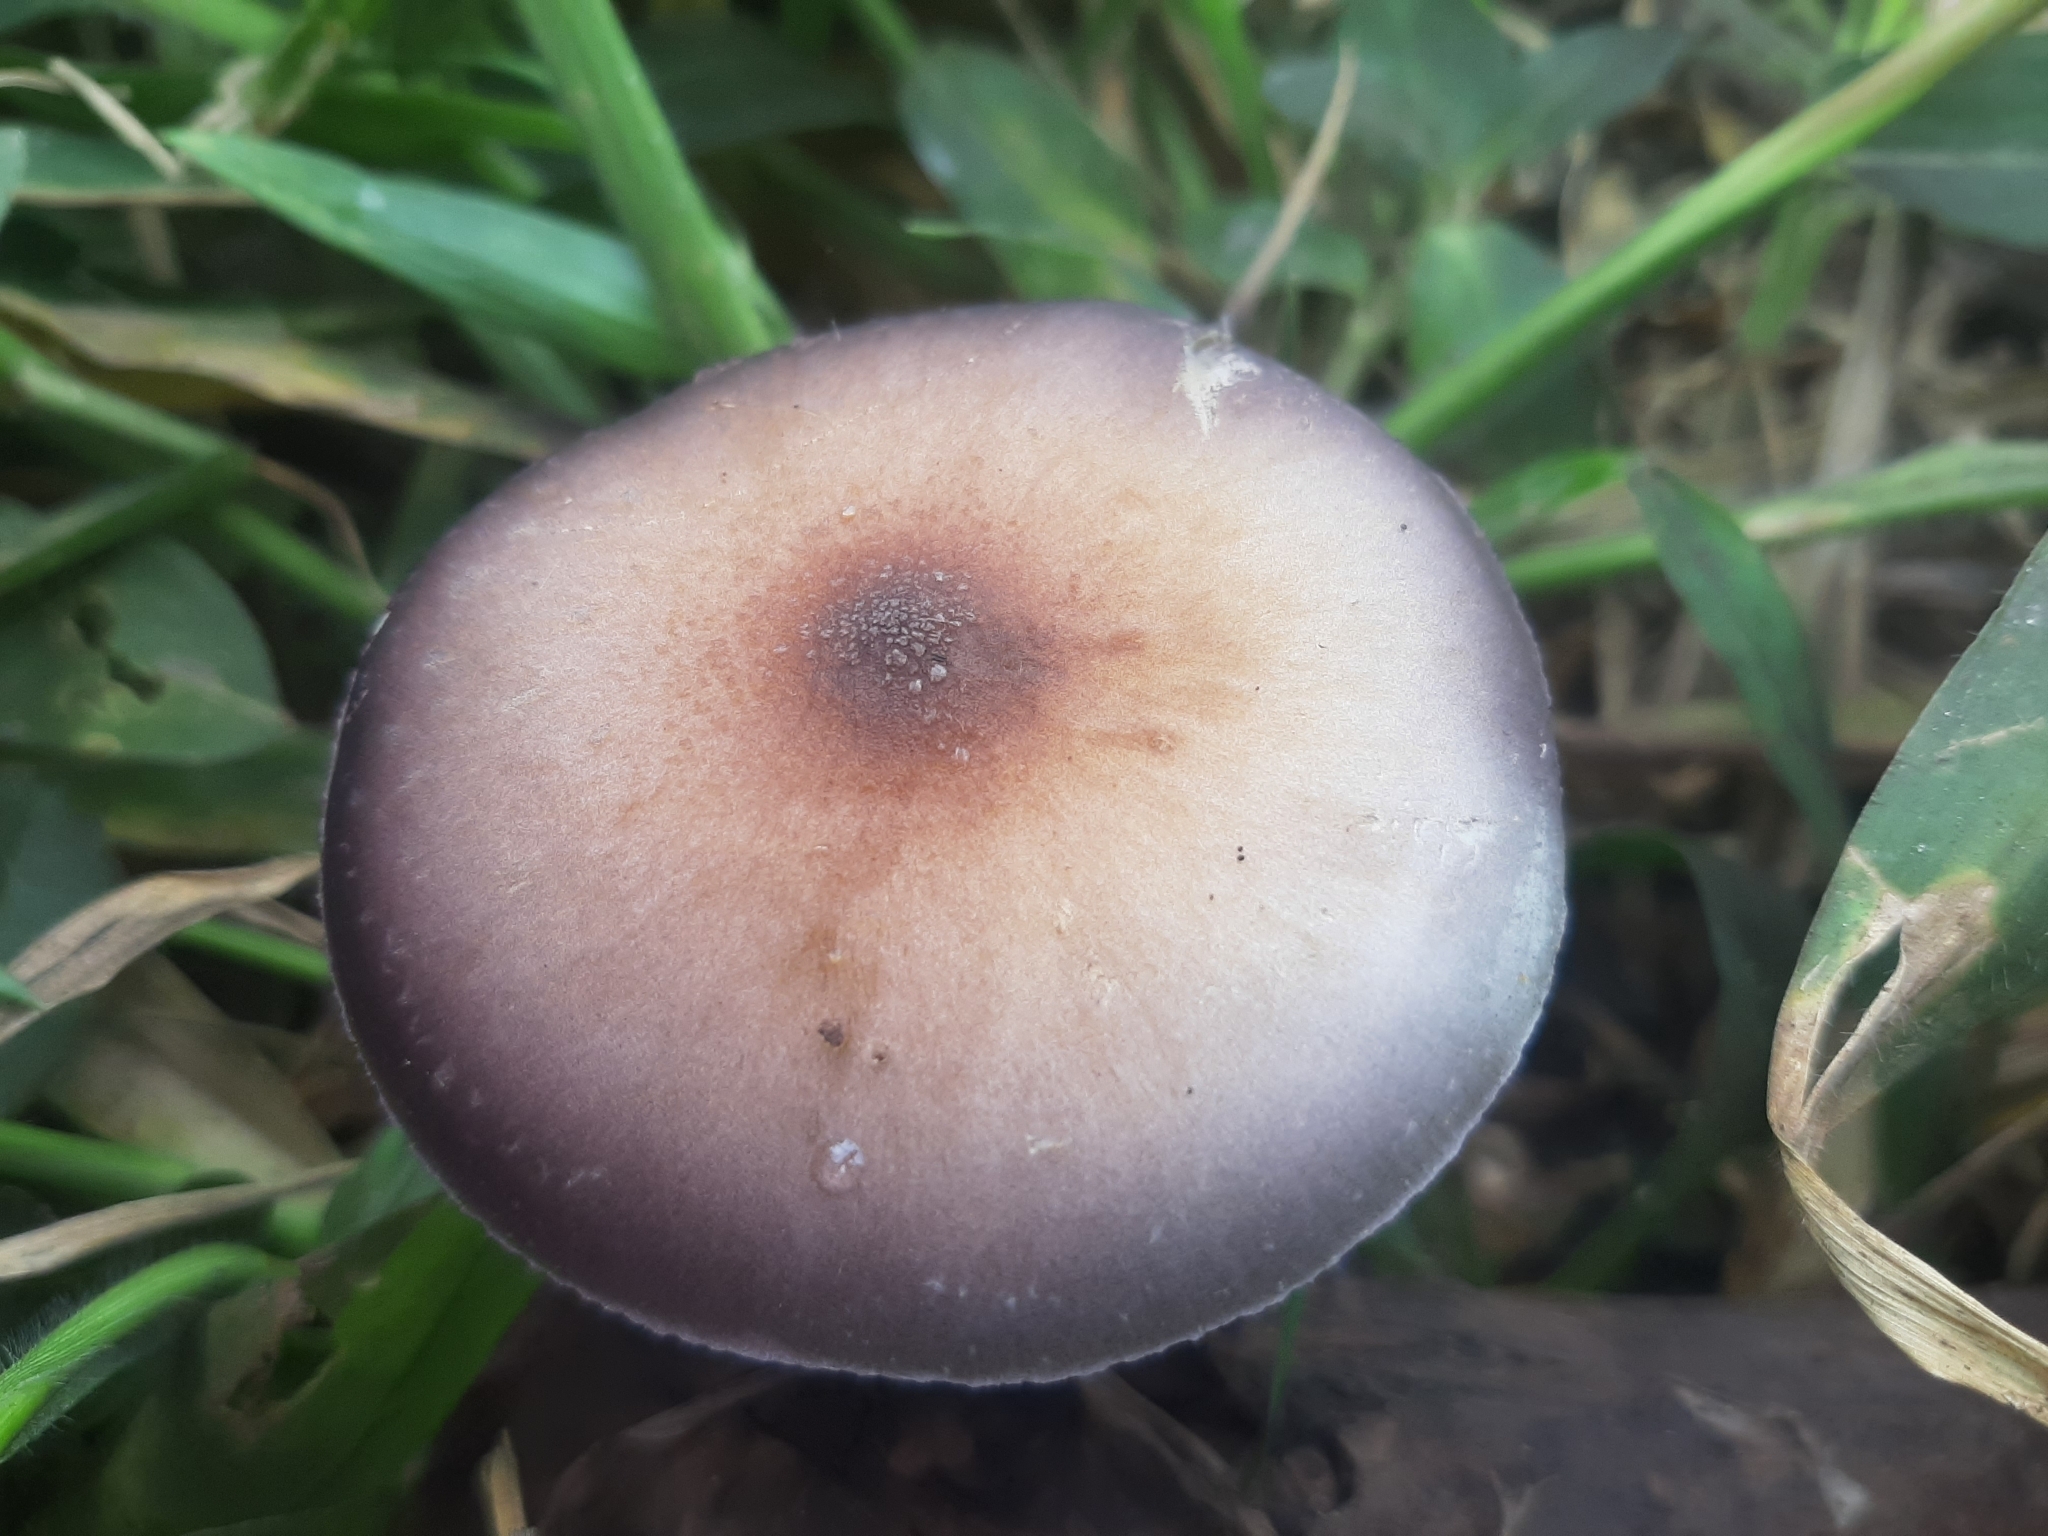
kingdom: Fungi
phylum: Basidiomycota
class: Agaricomycetes
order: Agaricales
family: Hymenogastraceae
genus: Psilocybe
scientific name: Psilocybe cubensis
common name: Golden brownie
